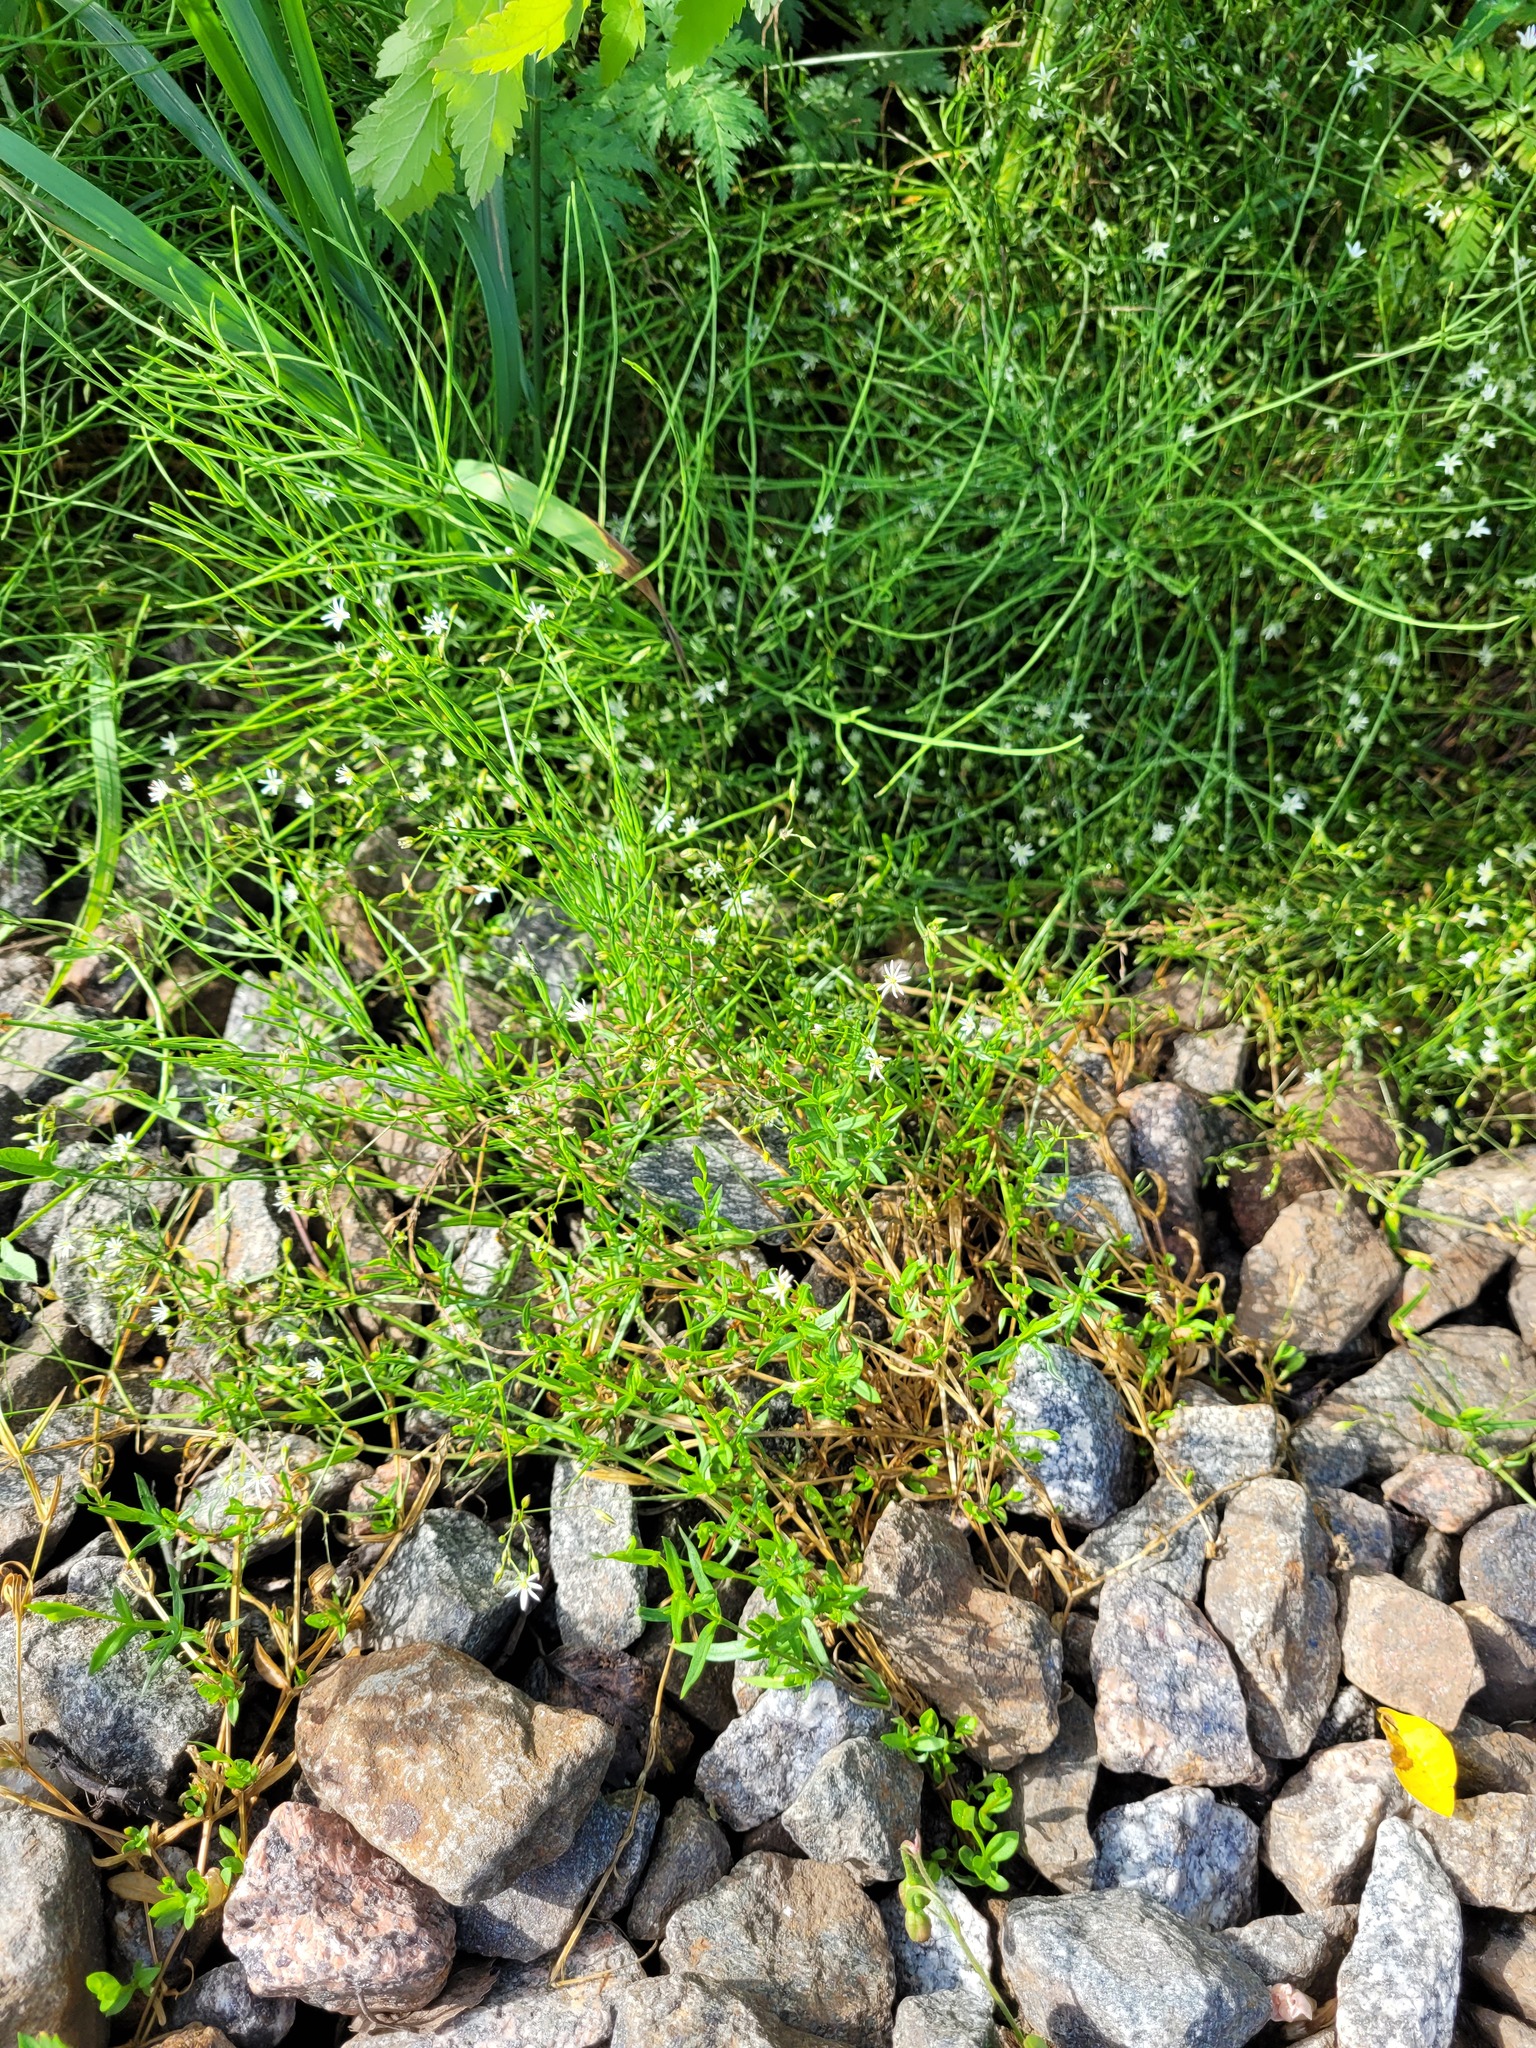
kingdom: Plantae
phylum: Tracheophyta
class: Magnoliopsida
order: Caryophyllales
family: Caryophyllaceae
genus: Stellaria
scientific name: Stellaria graminea
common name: Grass-like starwort
